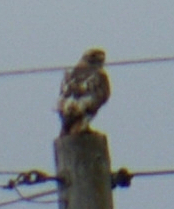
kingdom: Animalia
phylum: Chordata
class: Aves
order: Accipitriformes
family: Accipitridae
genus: Buteo
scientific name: Buteo jamaicensis
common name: Red-tailed hawk
